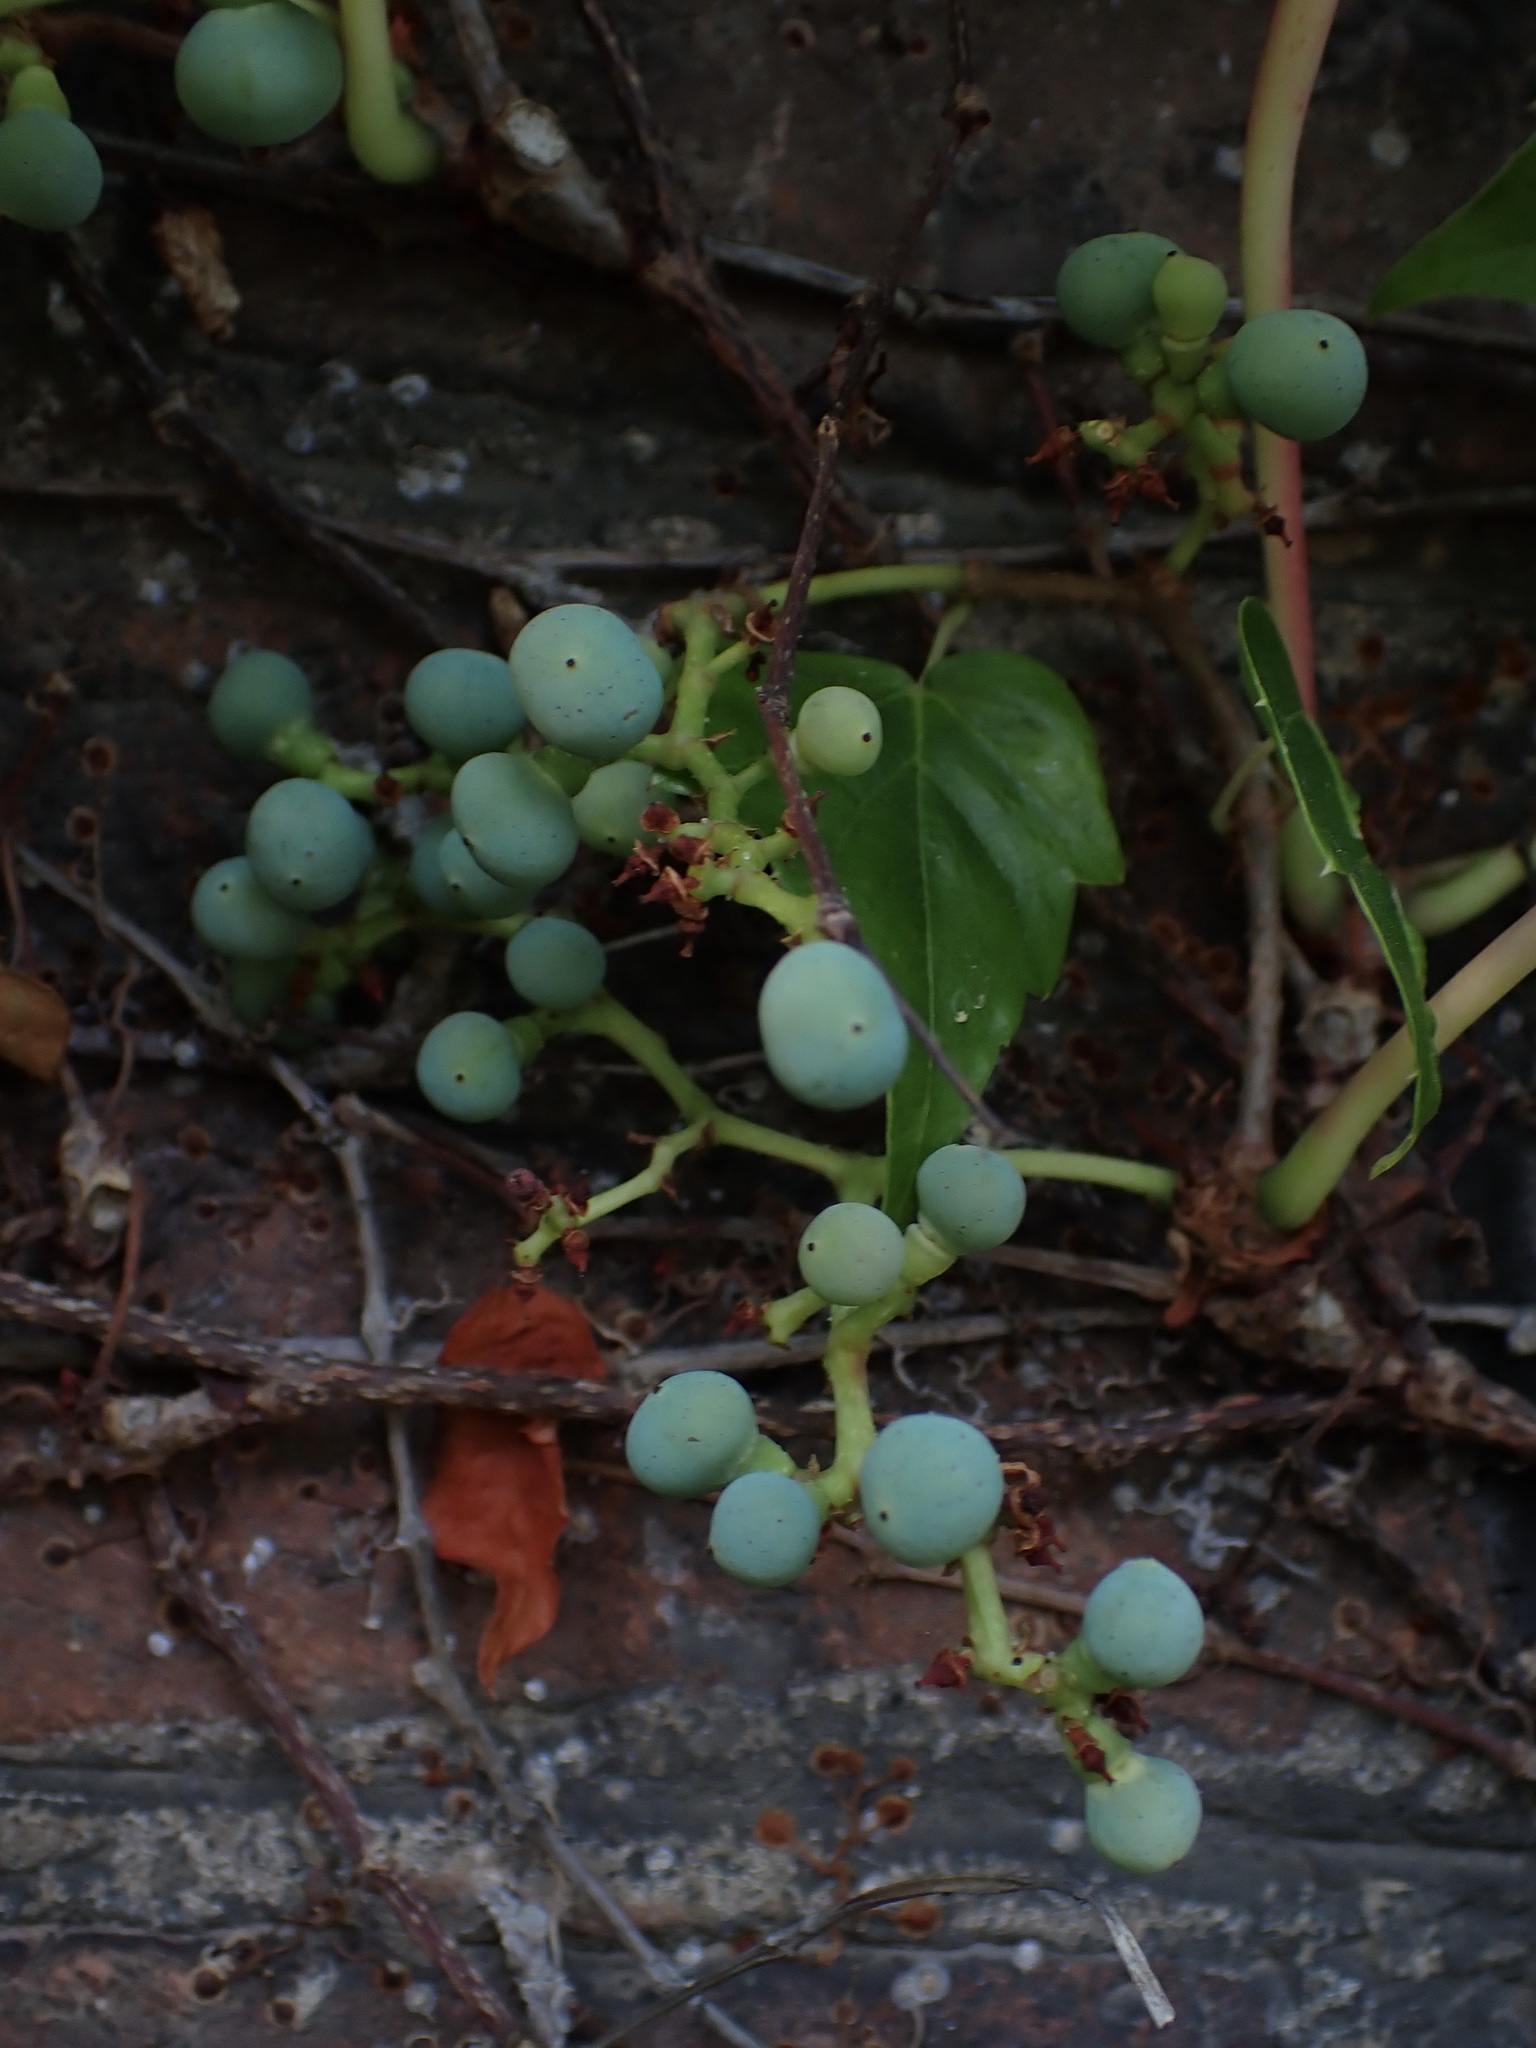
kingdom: Plantae
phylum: Tracheophyta
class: Magnoliopsida
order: Vitales
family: Vitaceae
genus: Parthenocissus
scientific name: Parthenocissus tricuspidata
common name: Boston ivy
